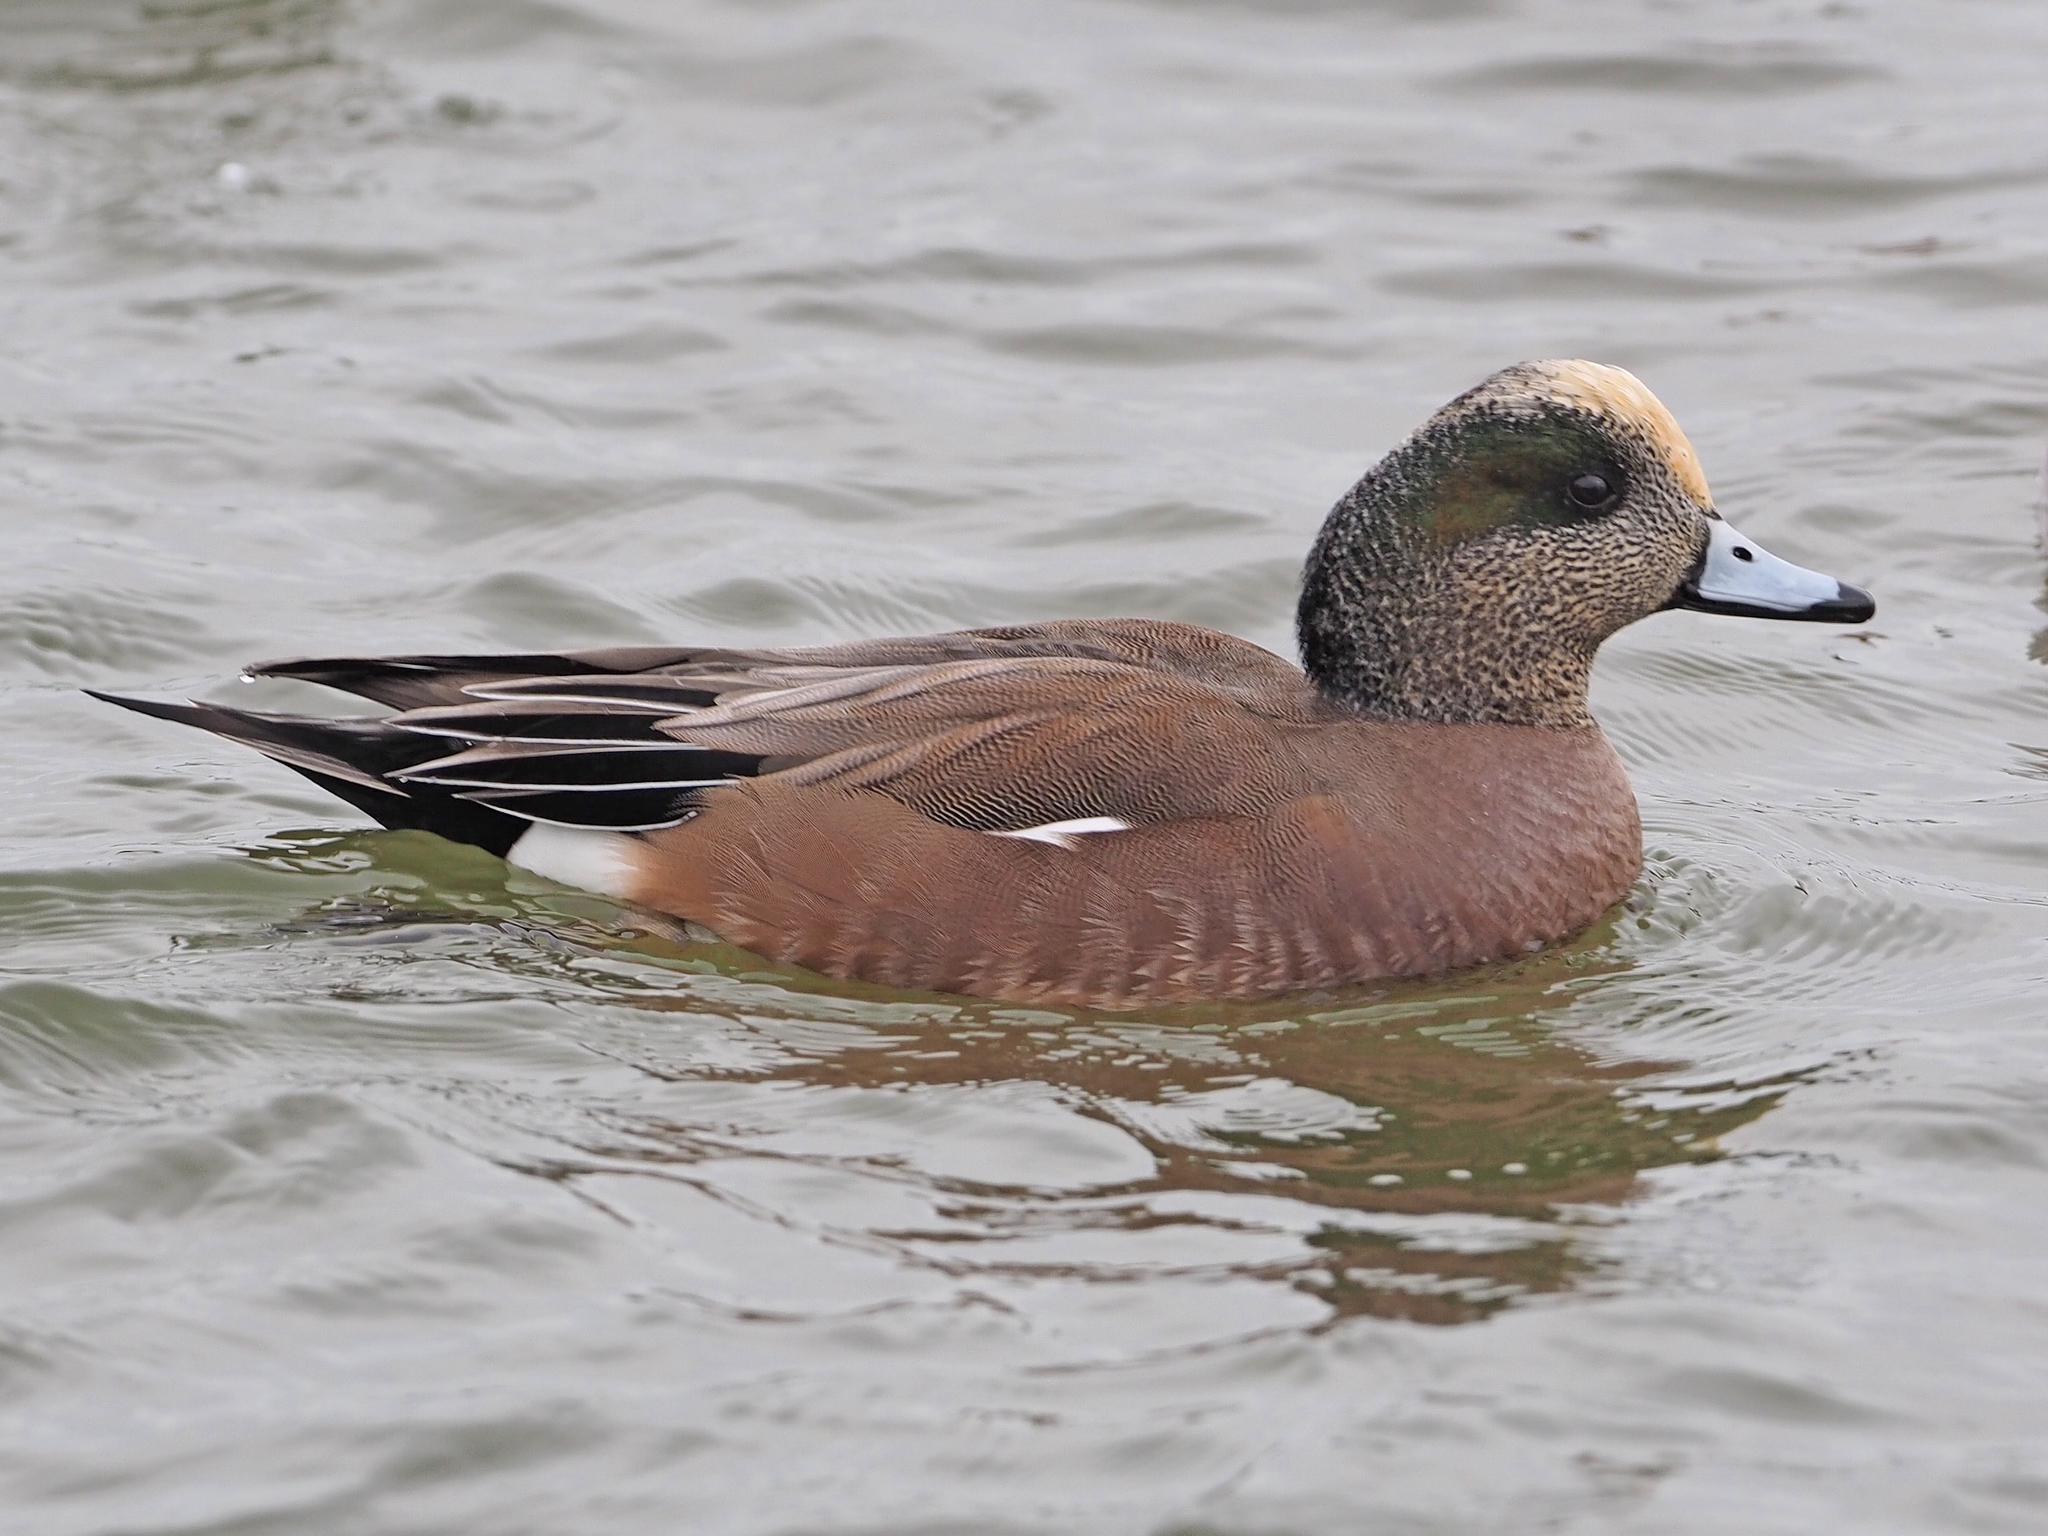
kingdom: Animalia
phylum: Chordata
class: Aves
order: Anseriformes
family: Anatidae
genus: Mareca
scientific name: Mareca americana
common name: American wigeon
